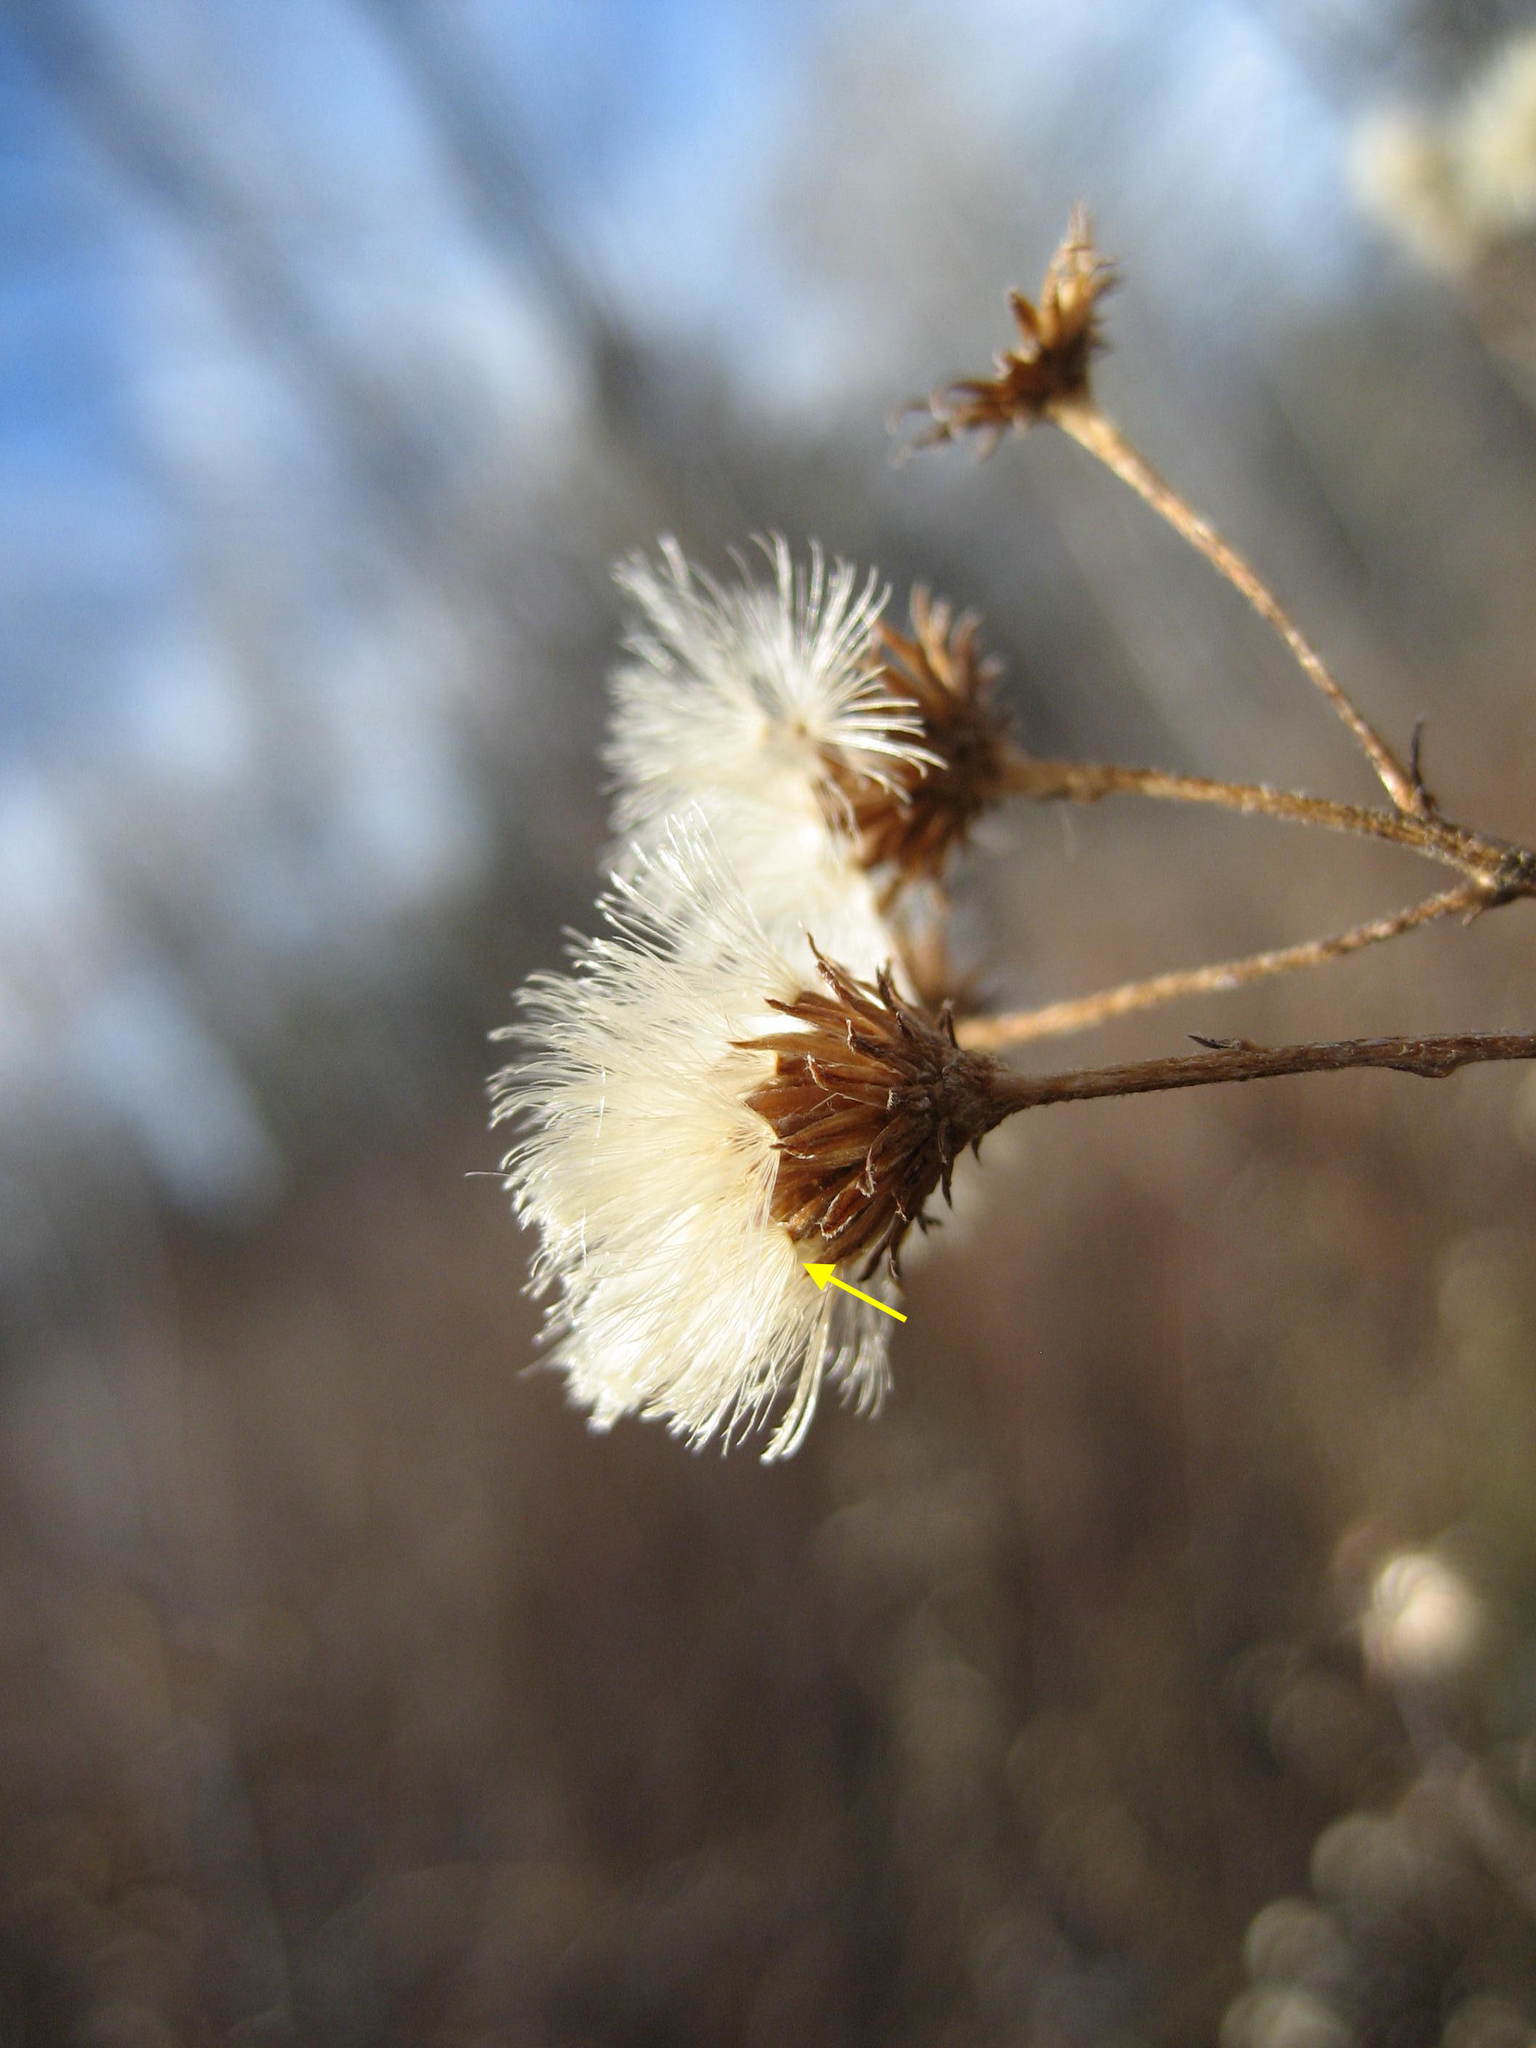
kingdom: Plantae
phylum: Tracheophyta
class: Magnoliopsida
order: Asterales
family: Asteraceae
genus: Doellingeria
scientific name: Doellingeria umbellata
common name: Flat-top white aster
